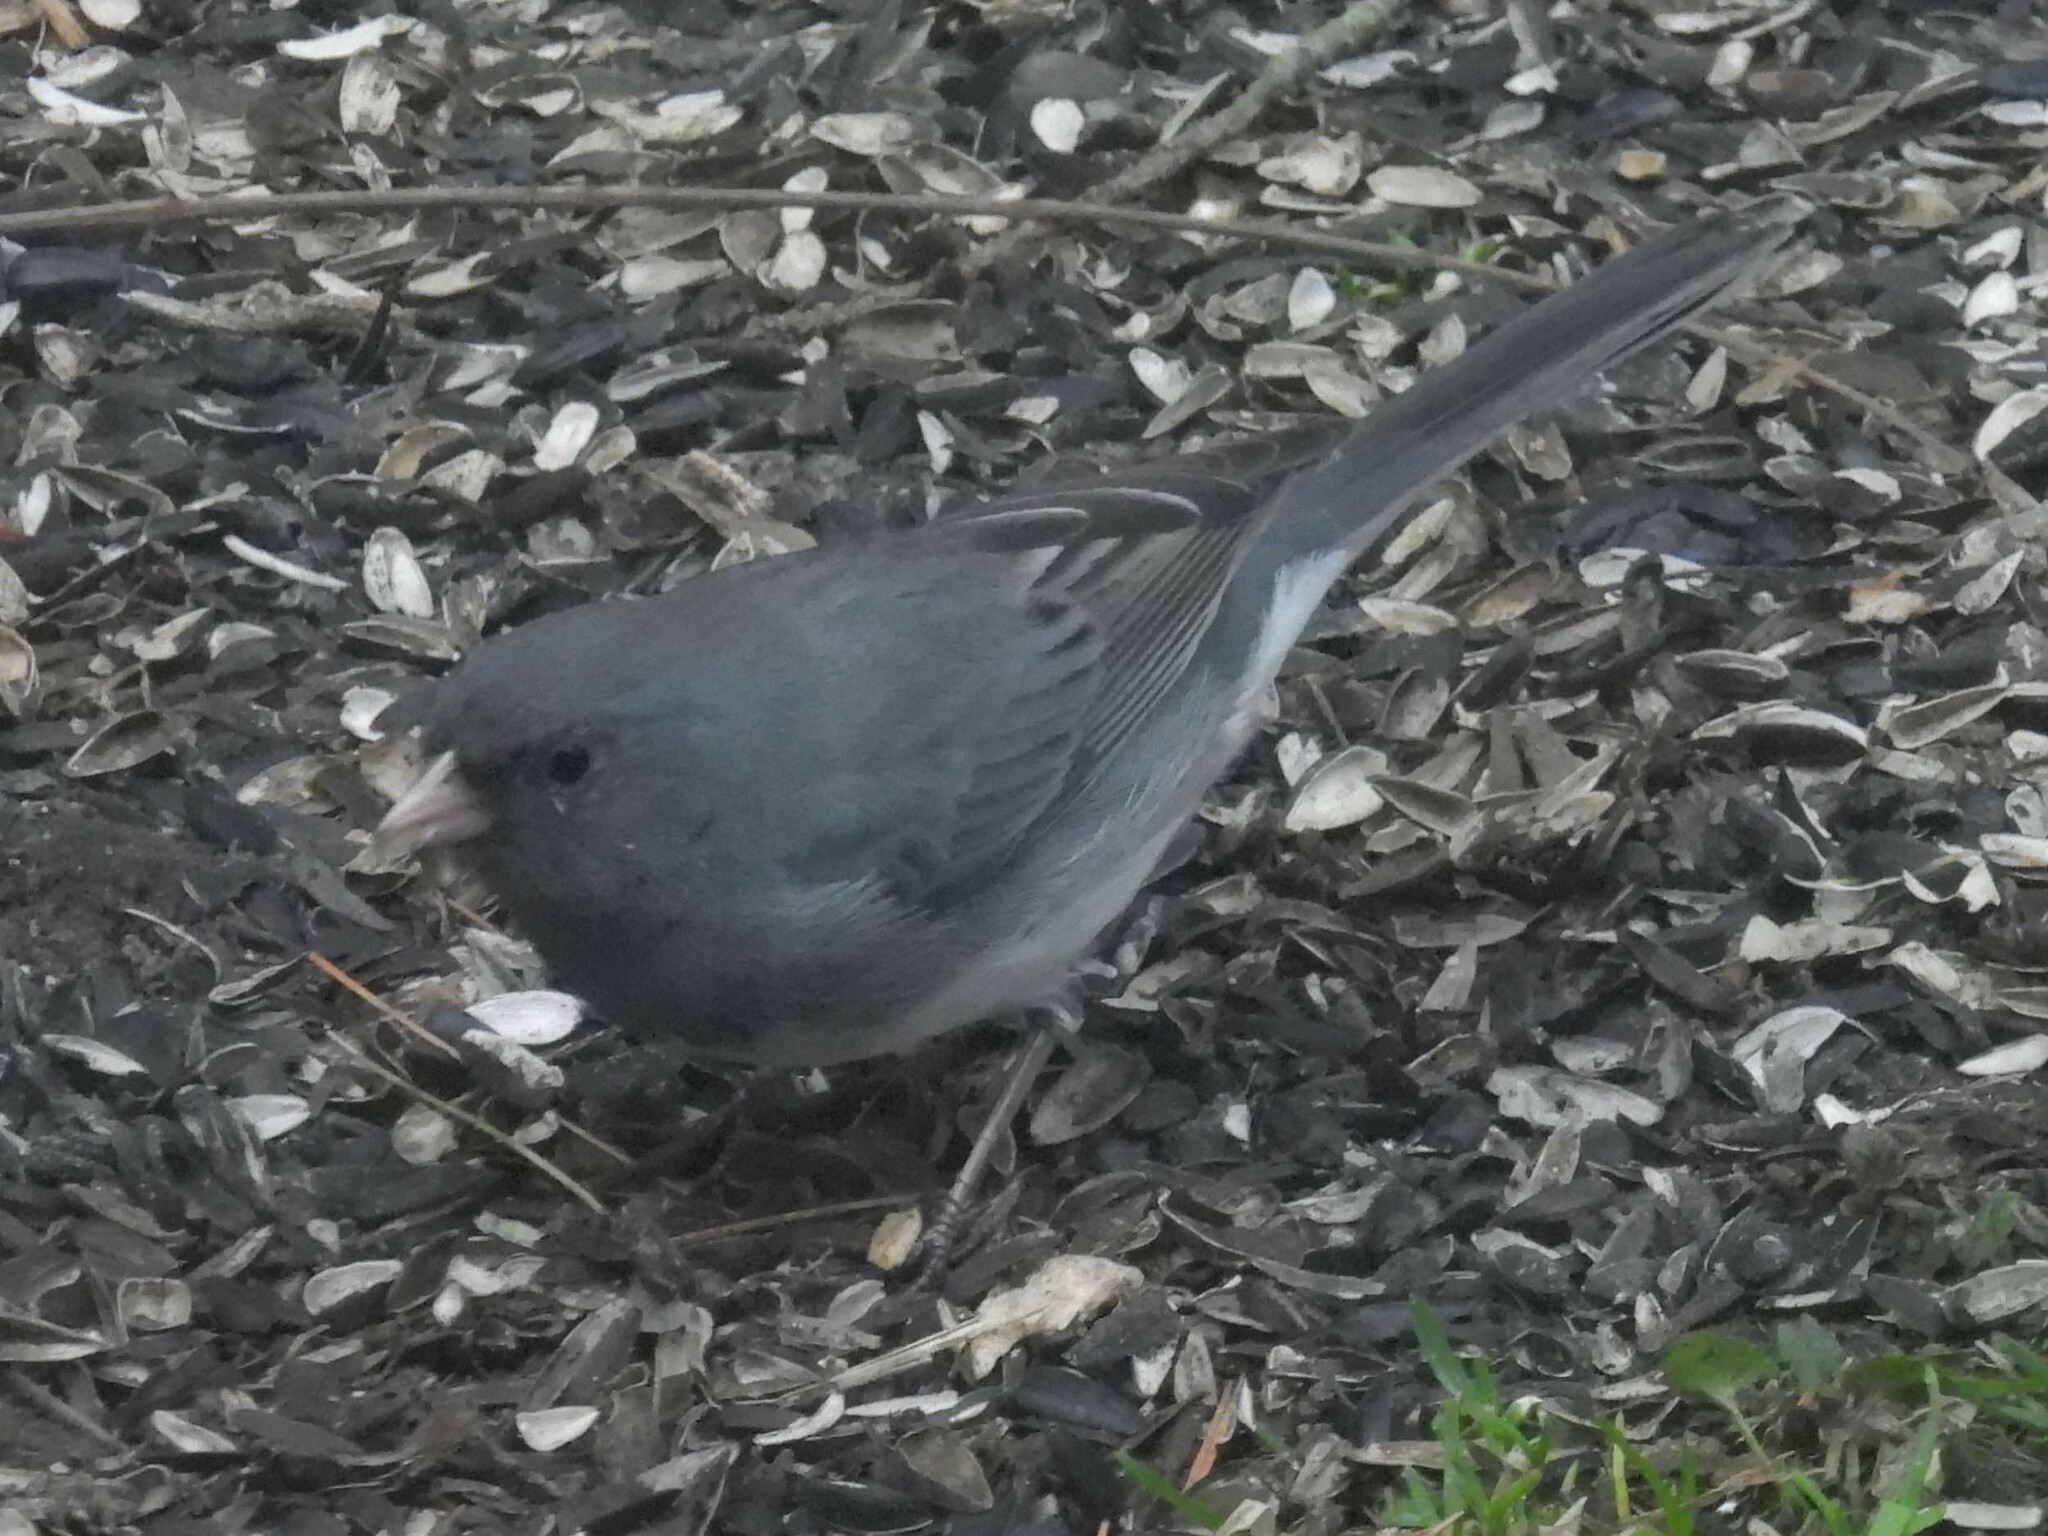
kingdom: Animalia
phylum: Chordata
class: Aves
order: Passeriformes
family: Passerellidae
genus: Junco
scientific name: Junco hyemalis
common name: Dark-eyed junco
